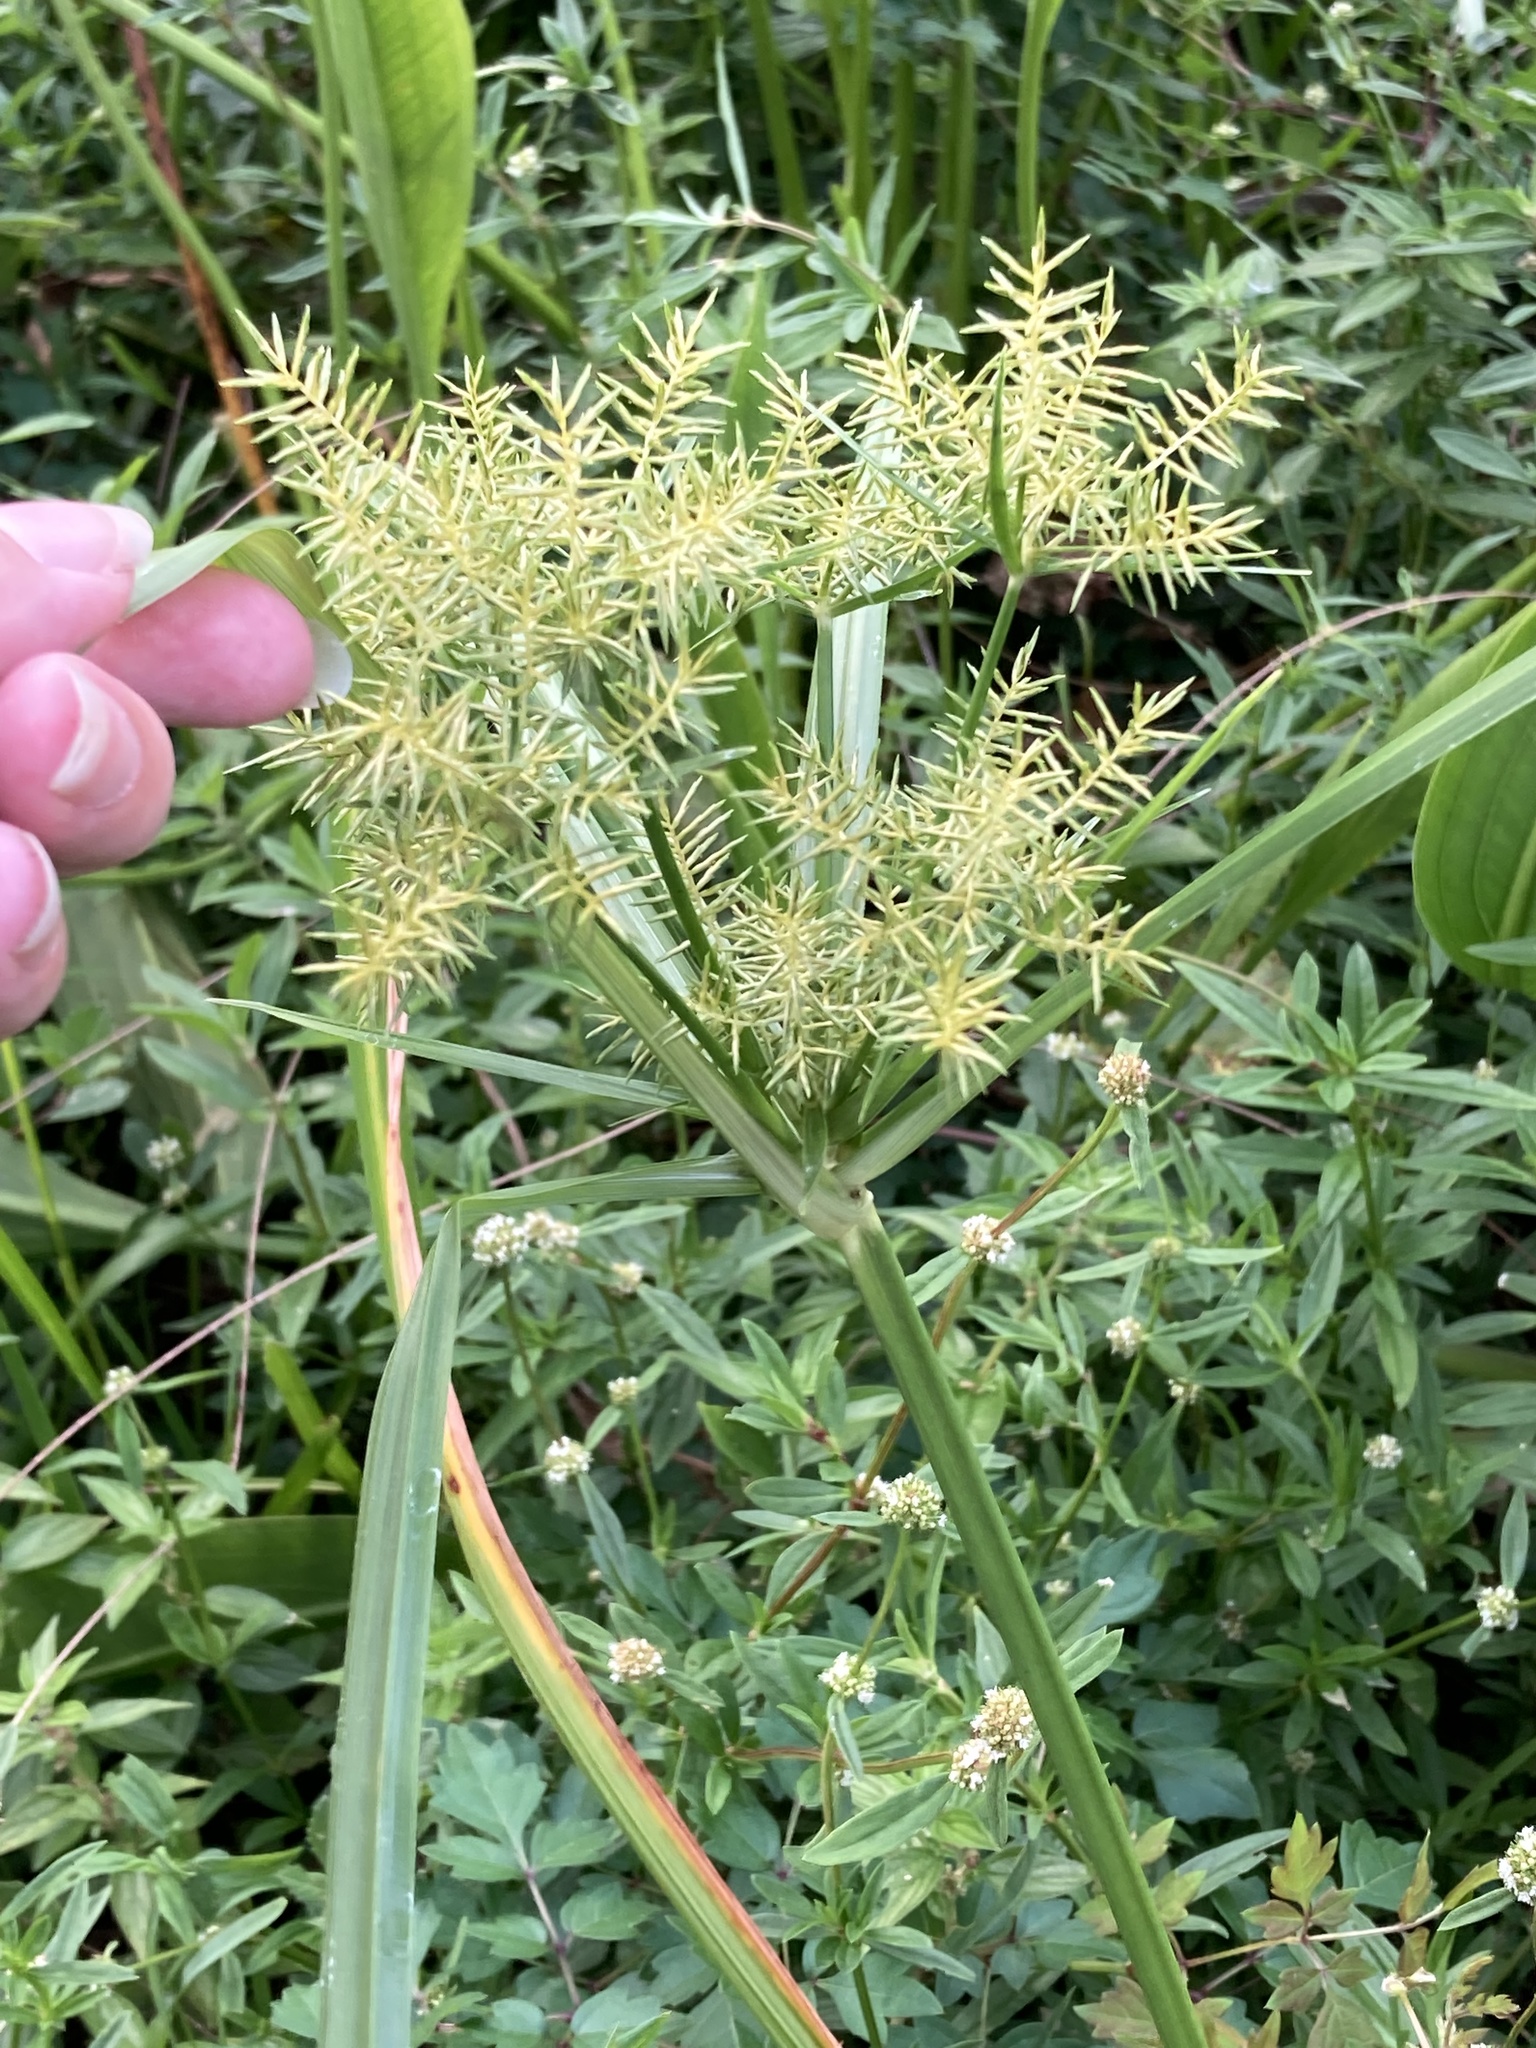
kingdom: Plantae
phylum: Tracheophyta
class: Liliopsida
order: Poales
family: Cyperaceae
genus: Cyperus
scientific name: Cyperus odoratus
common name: Fragrant flatsedge
